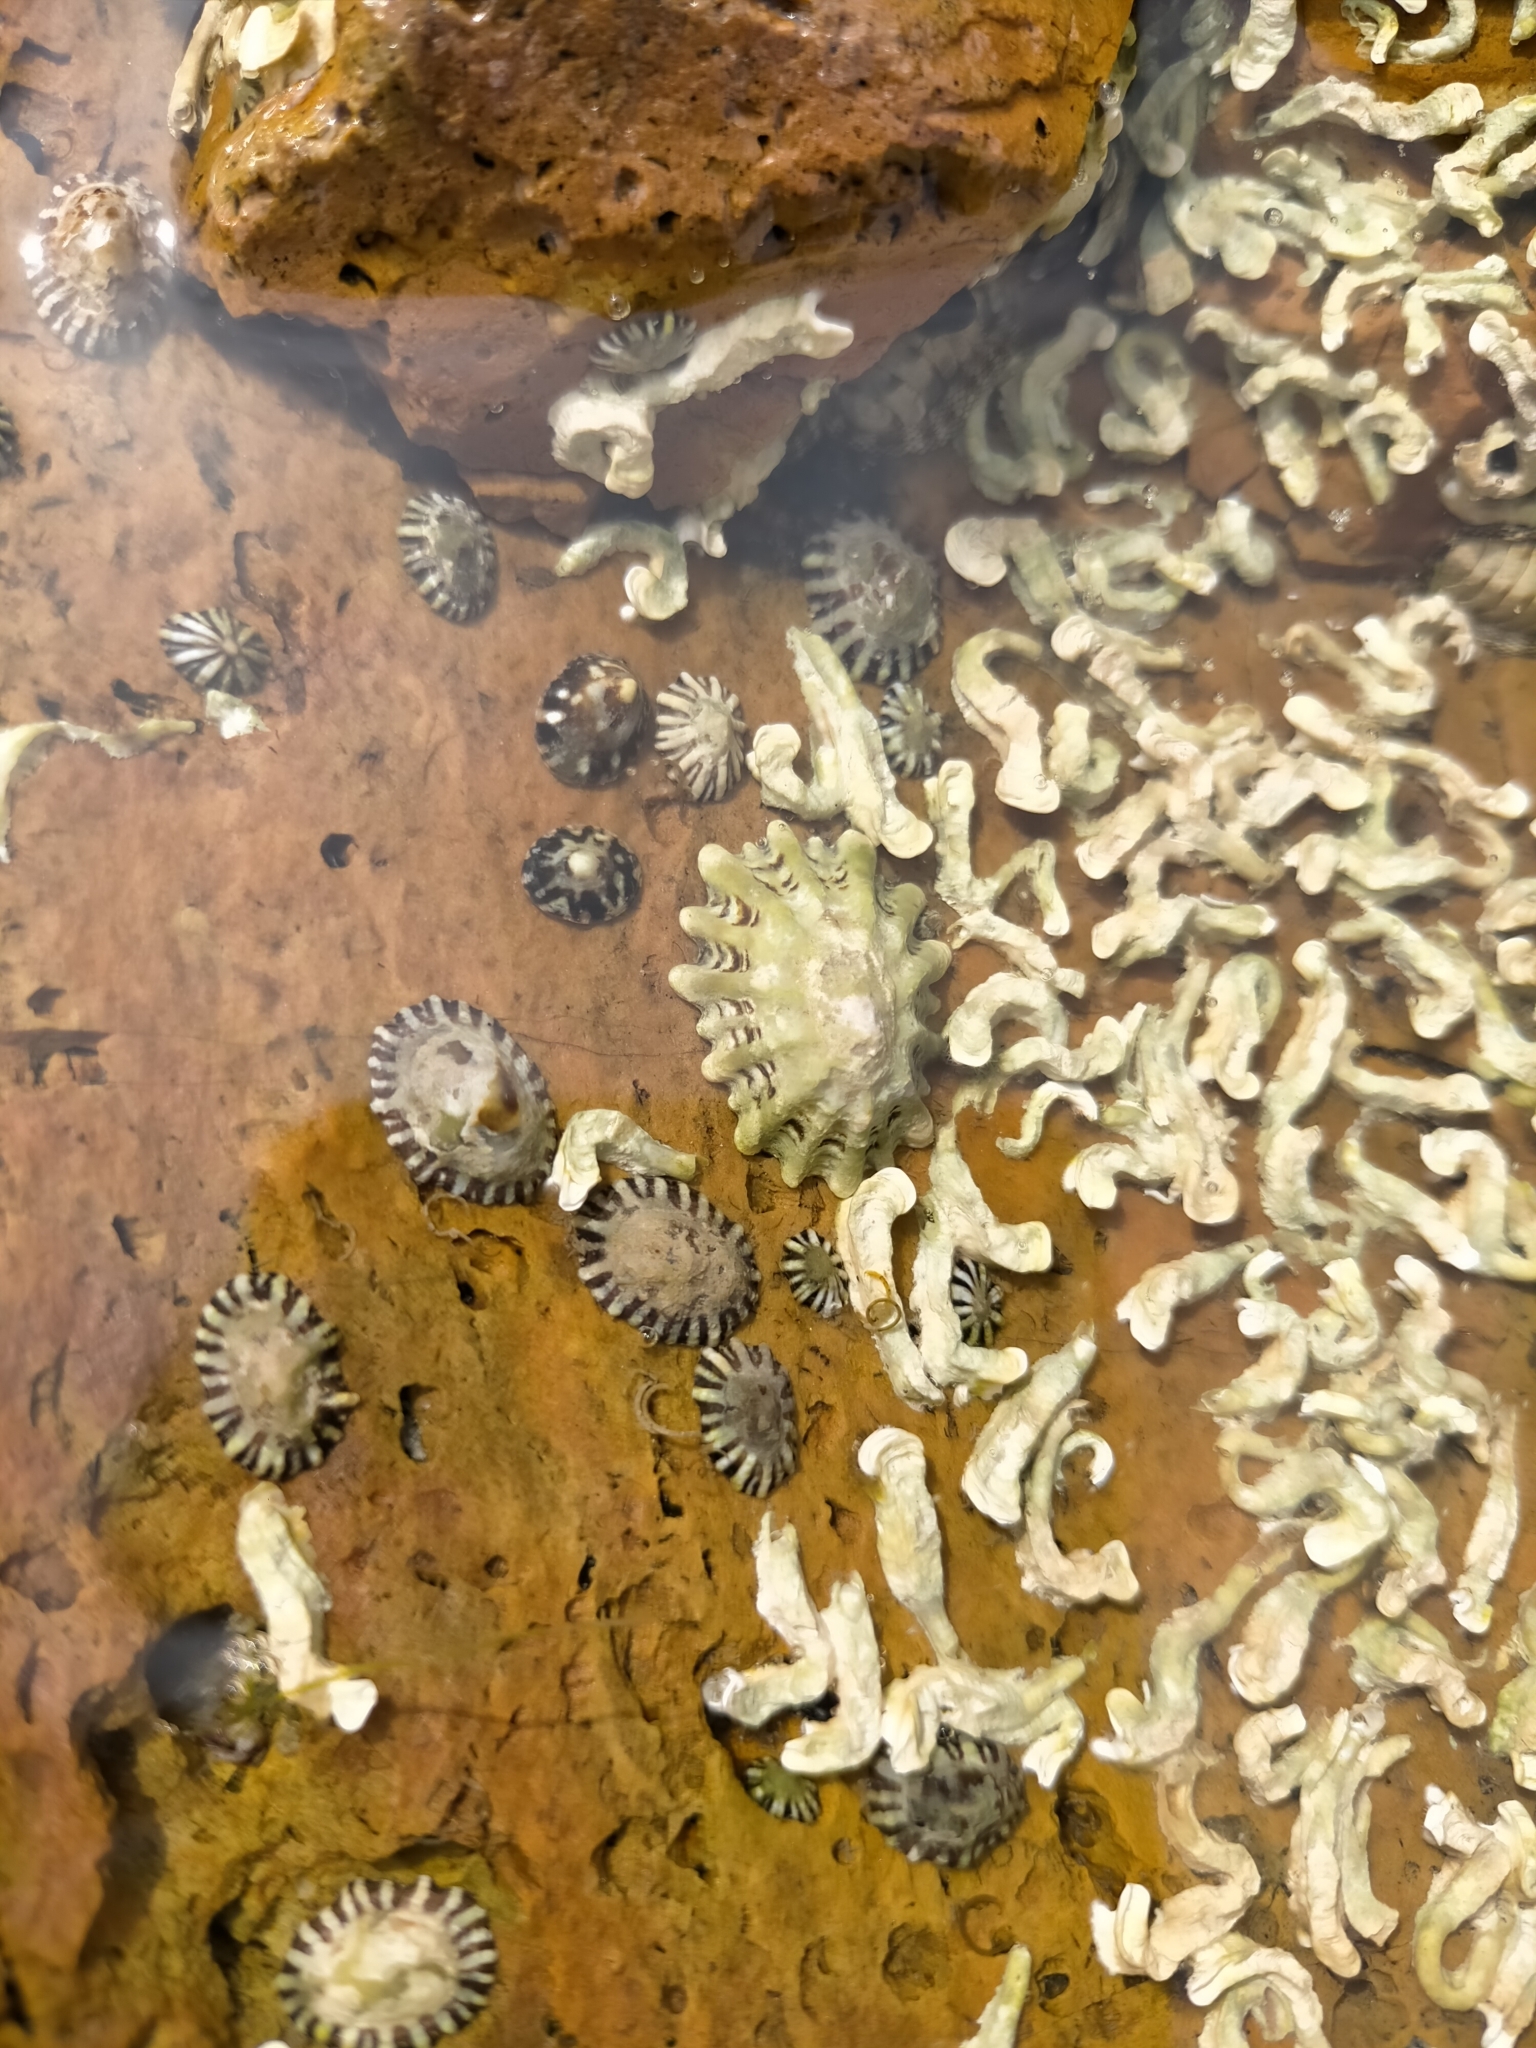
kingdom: Animalia
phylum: Mollusca
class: Gastropoda
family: Lottiidae
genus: Patelloida
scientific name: Patelloida alticostata
